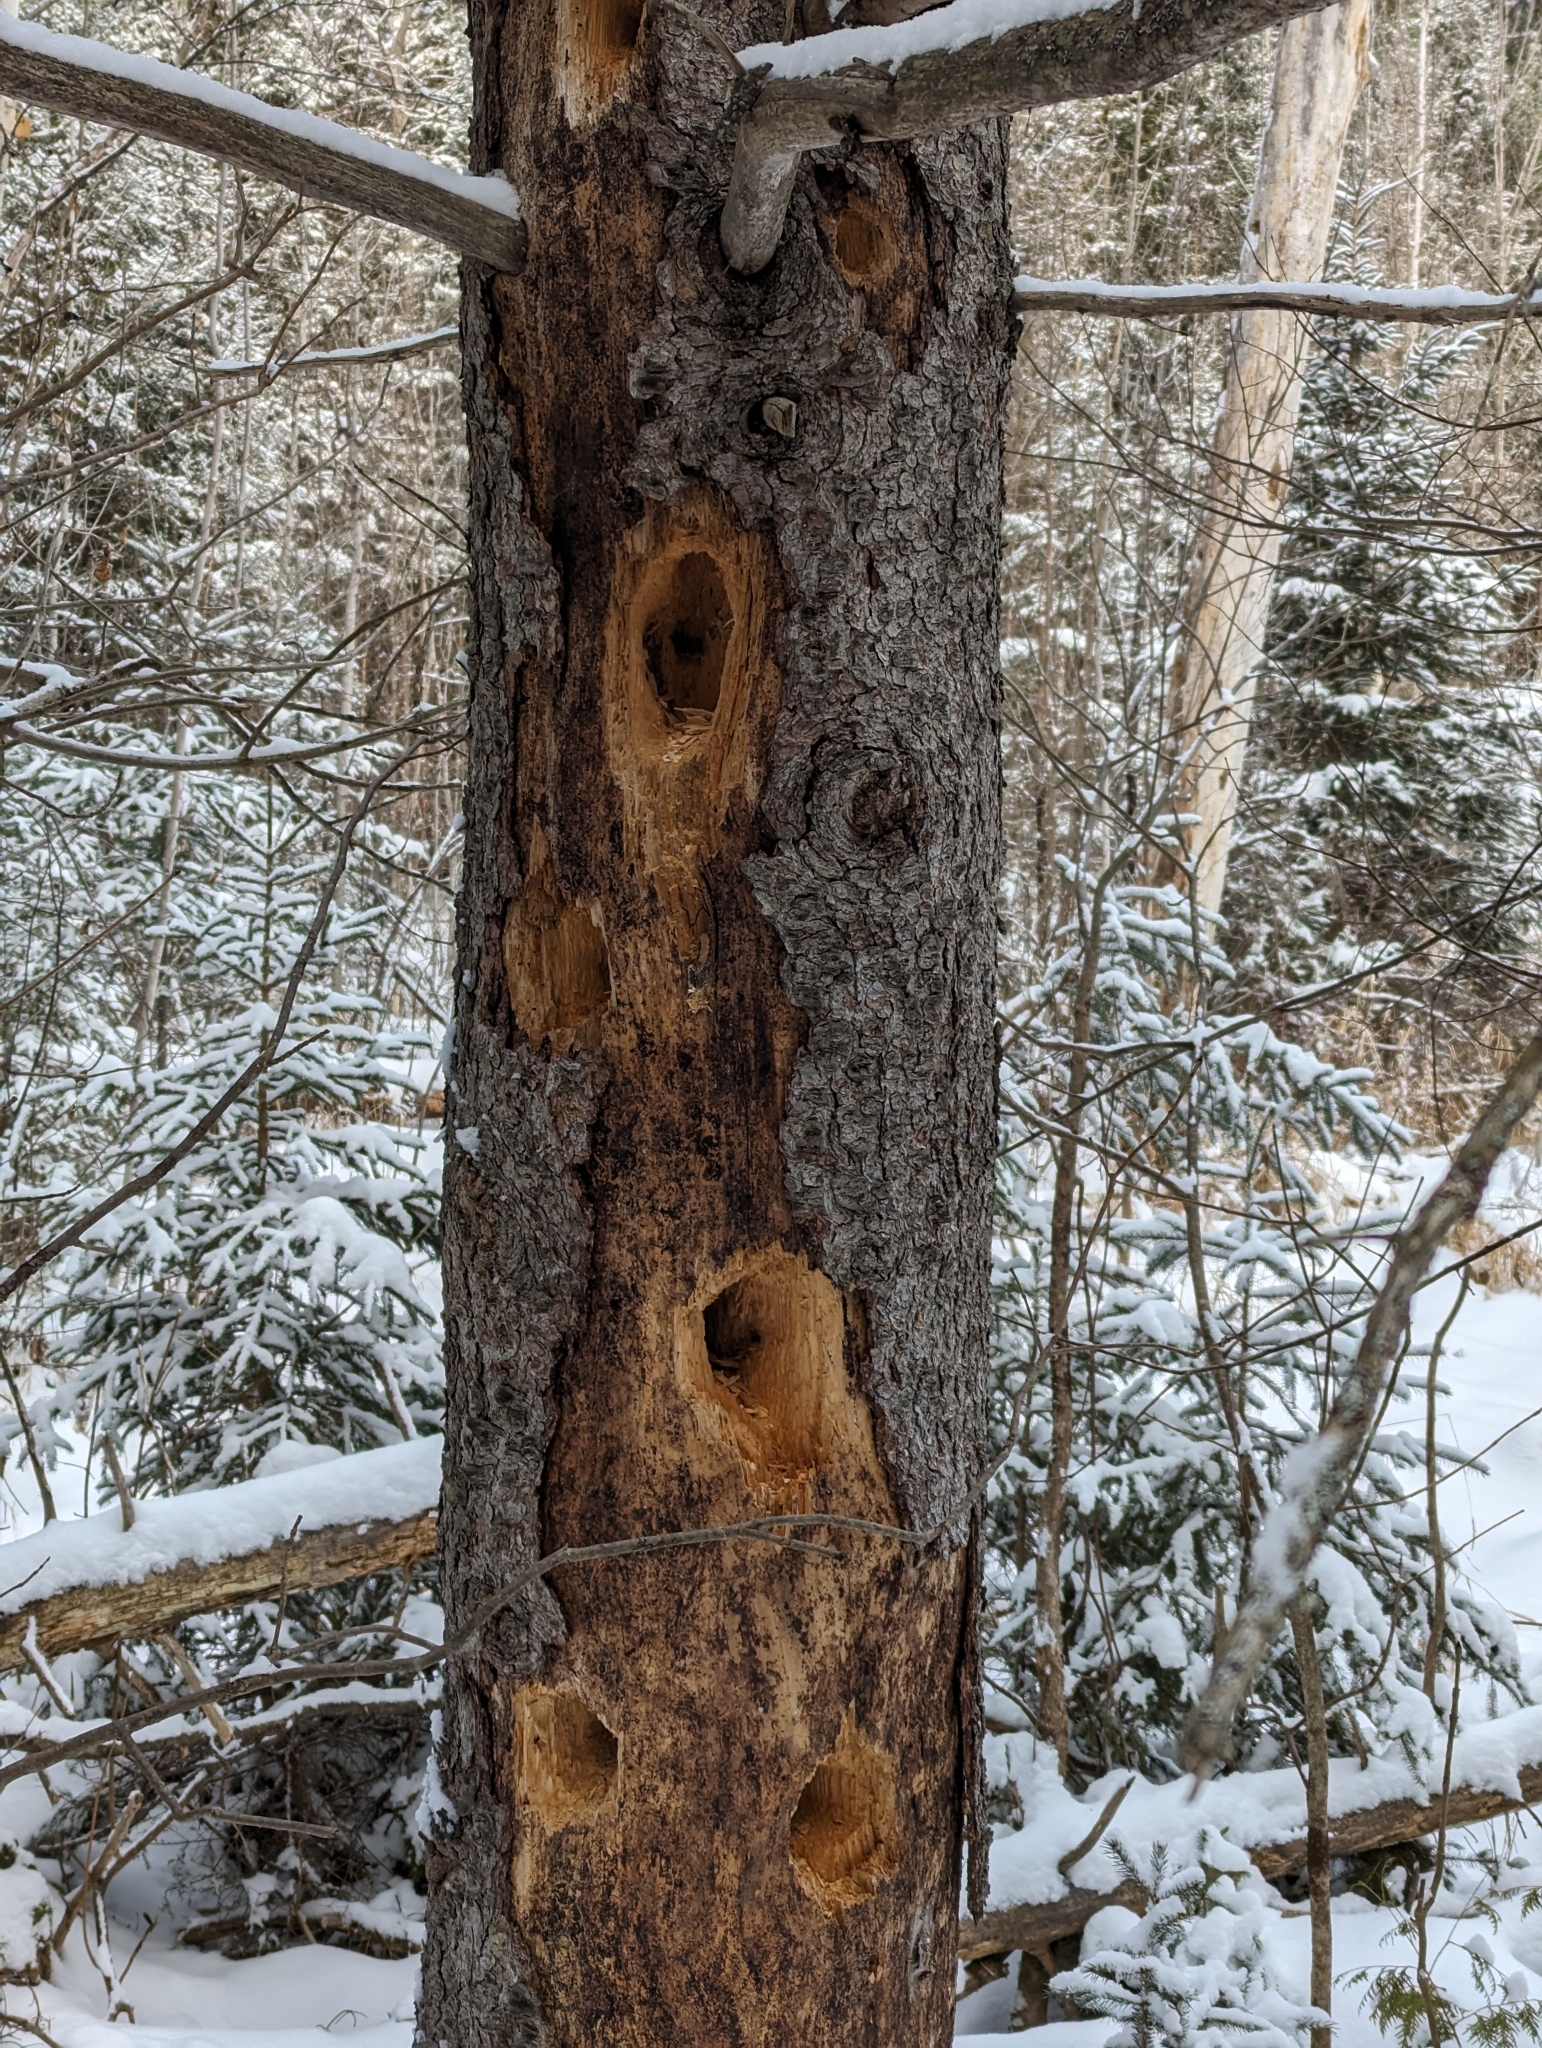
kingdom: Animalia
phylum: Chordata
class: Aves
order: Piciformes
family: Picidae
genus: Dryocopus
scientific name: Dryocopus pileatus
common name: Pileated woodpecker
